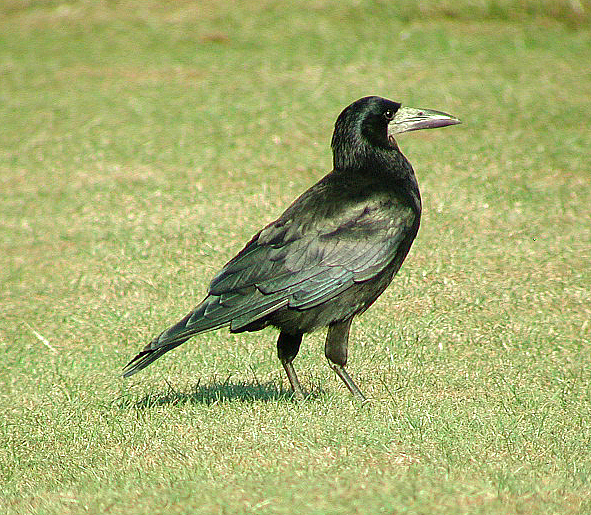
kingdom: Animalia
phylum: Chordata
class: Aves
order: Passeriformes
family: Corvidae
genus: Corvus
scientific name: Corvus frugilegus
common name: Rook
